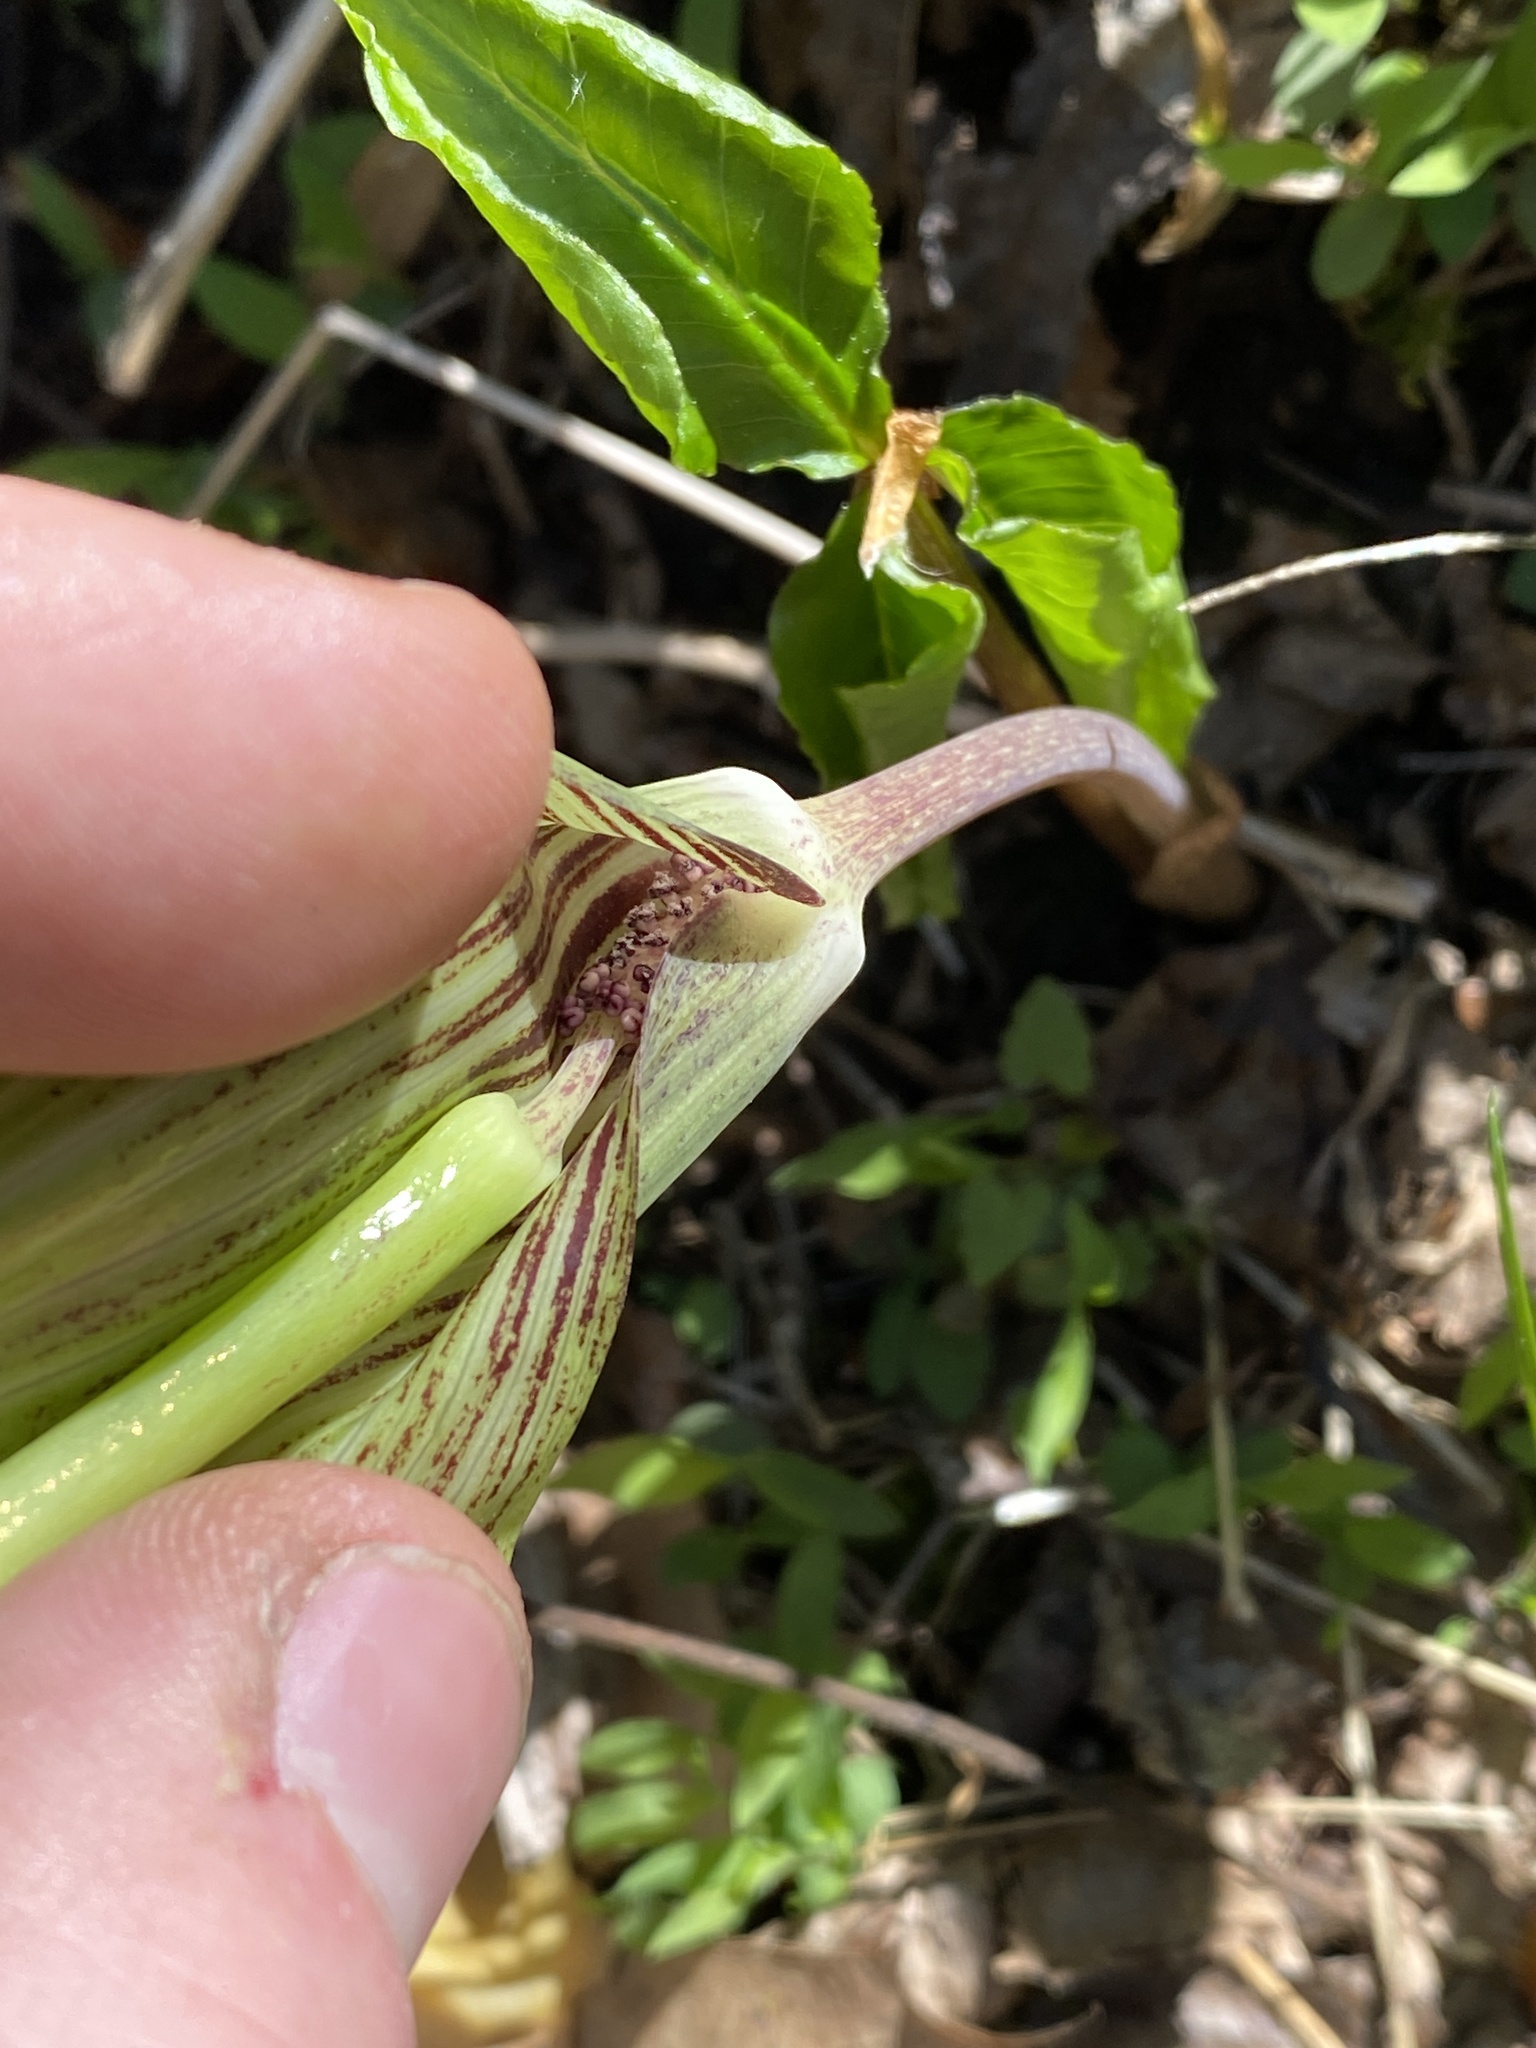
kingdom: Plantae
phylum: Tracheophyta
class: Liliopsida
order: Alismatales
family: Araceae
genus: Arisaema
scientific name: Arisaema triphyllum
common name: Jack-in-the-pulpit
